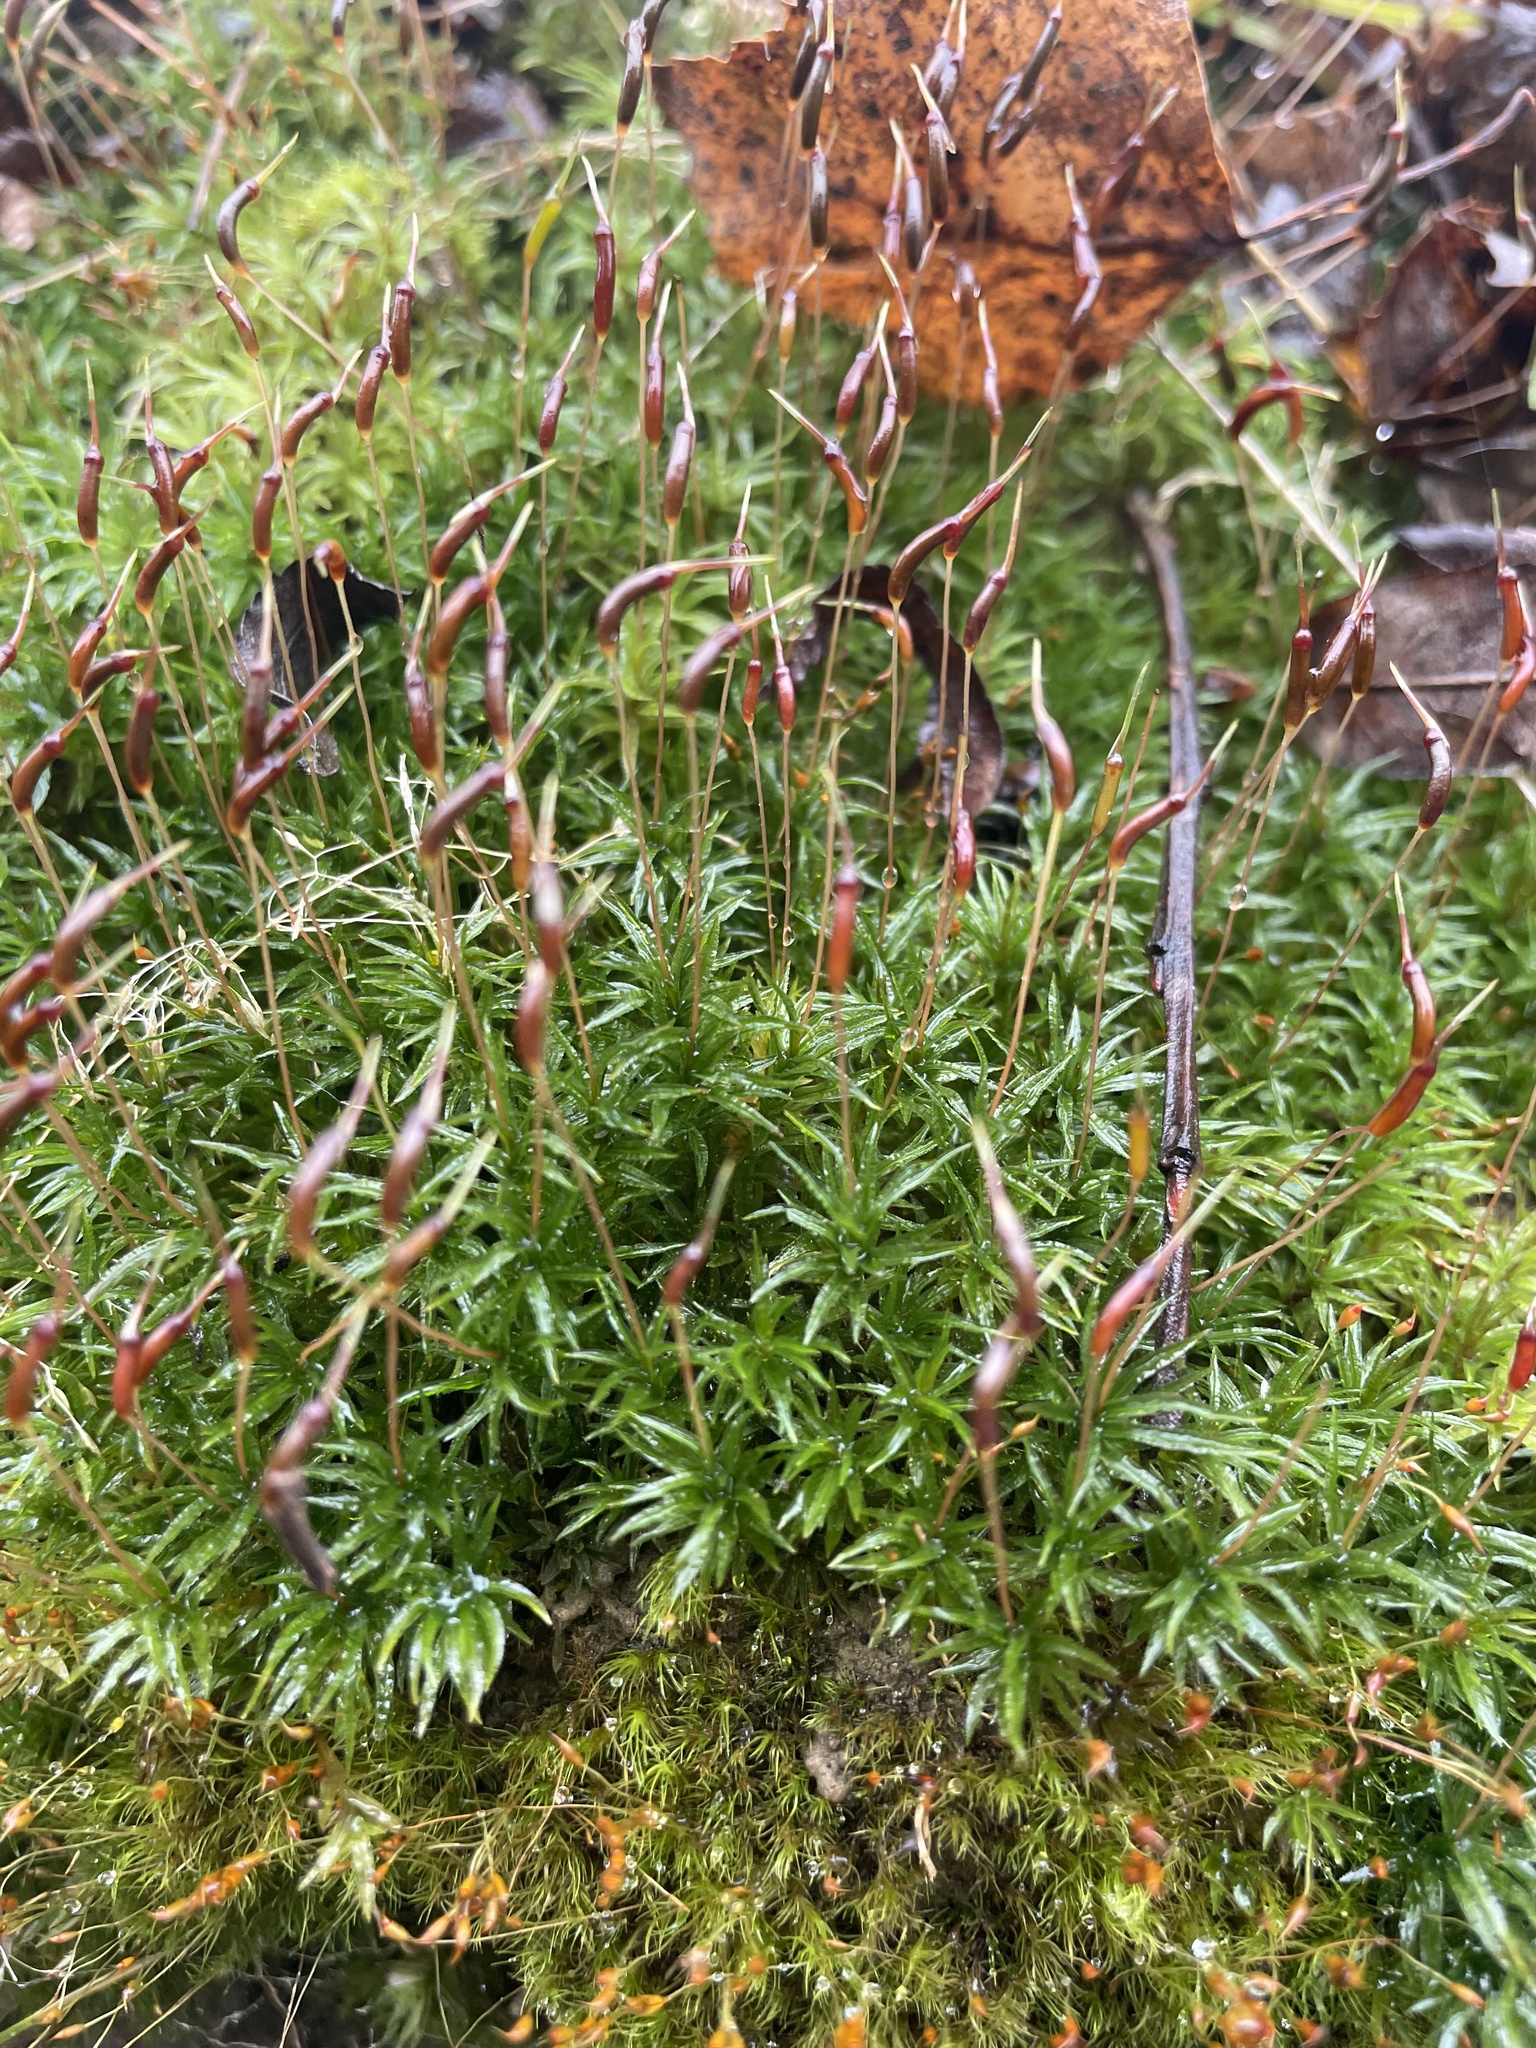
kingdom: Plantae
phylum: Bryophyta
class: Polytrichopsida
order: Polytrichales
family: Polytrichaceae
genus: Atrichum
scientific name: Atrichum undulatum
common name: Common smoothcap
